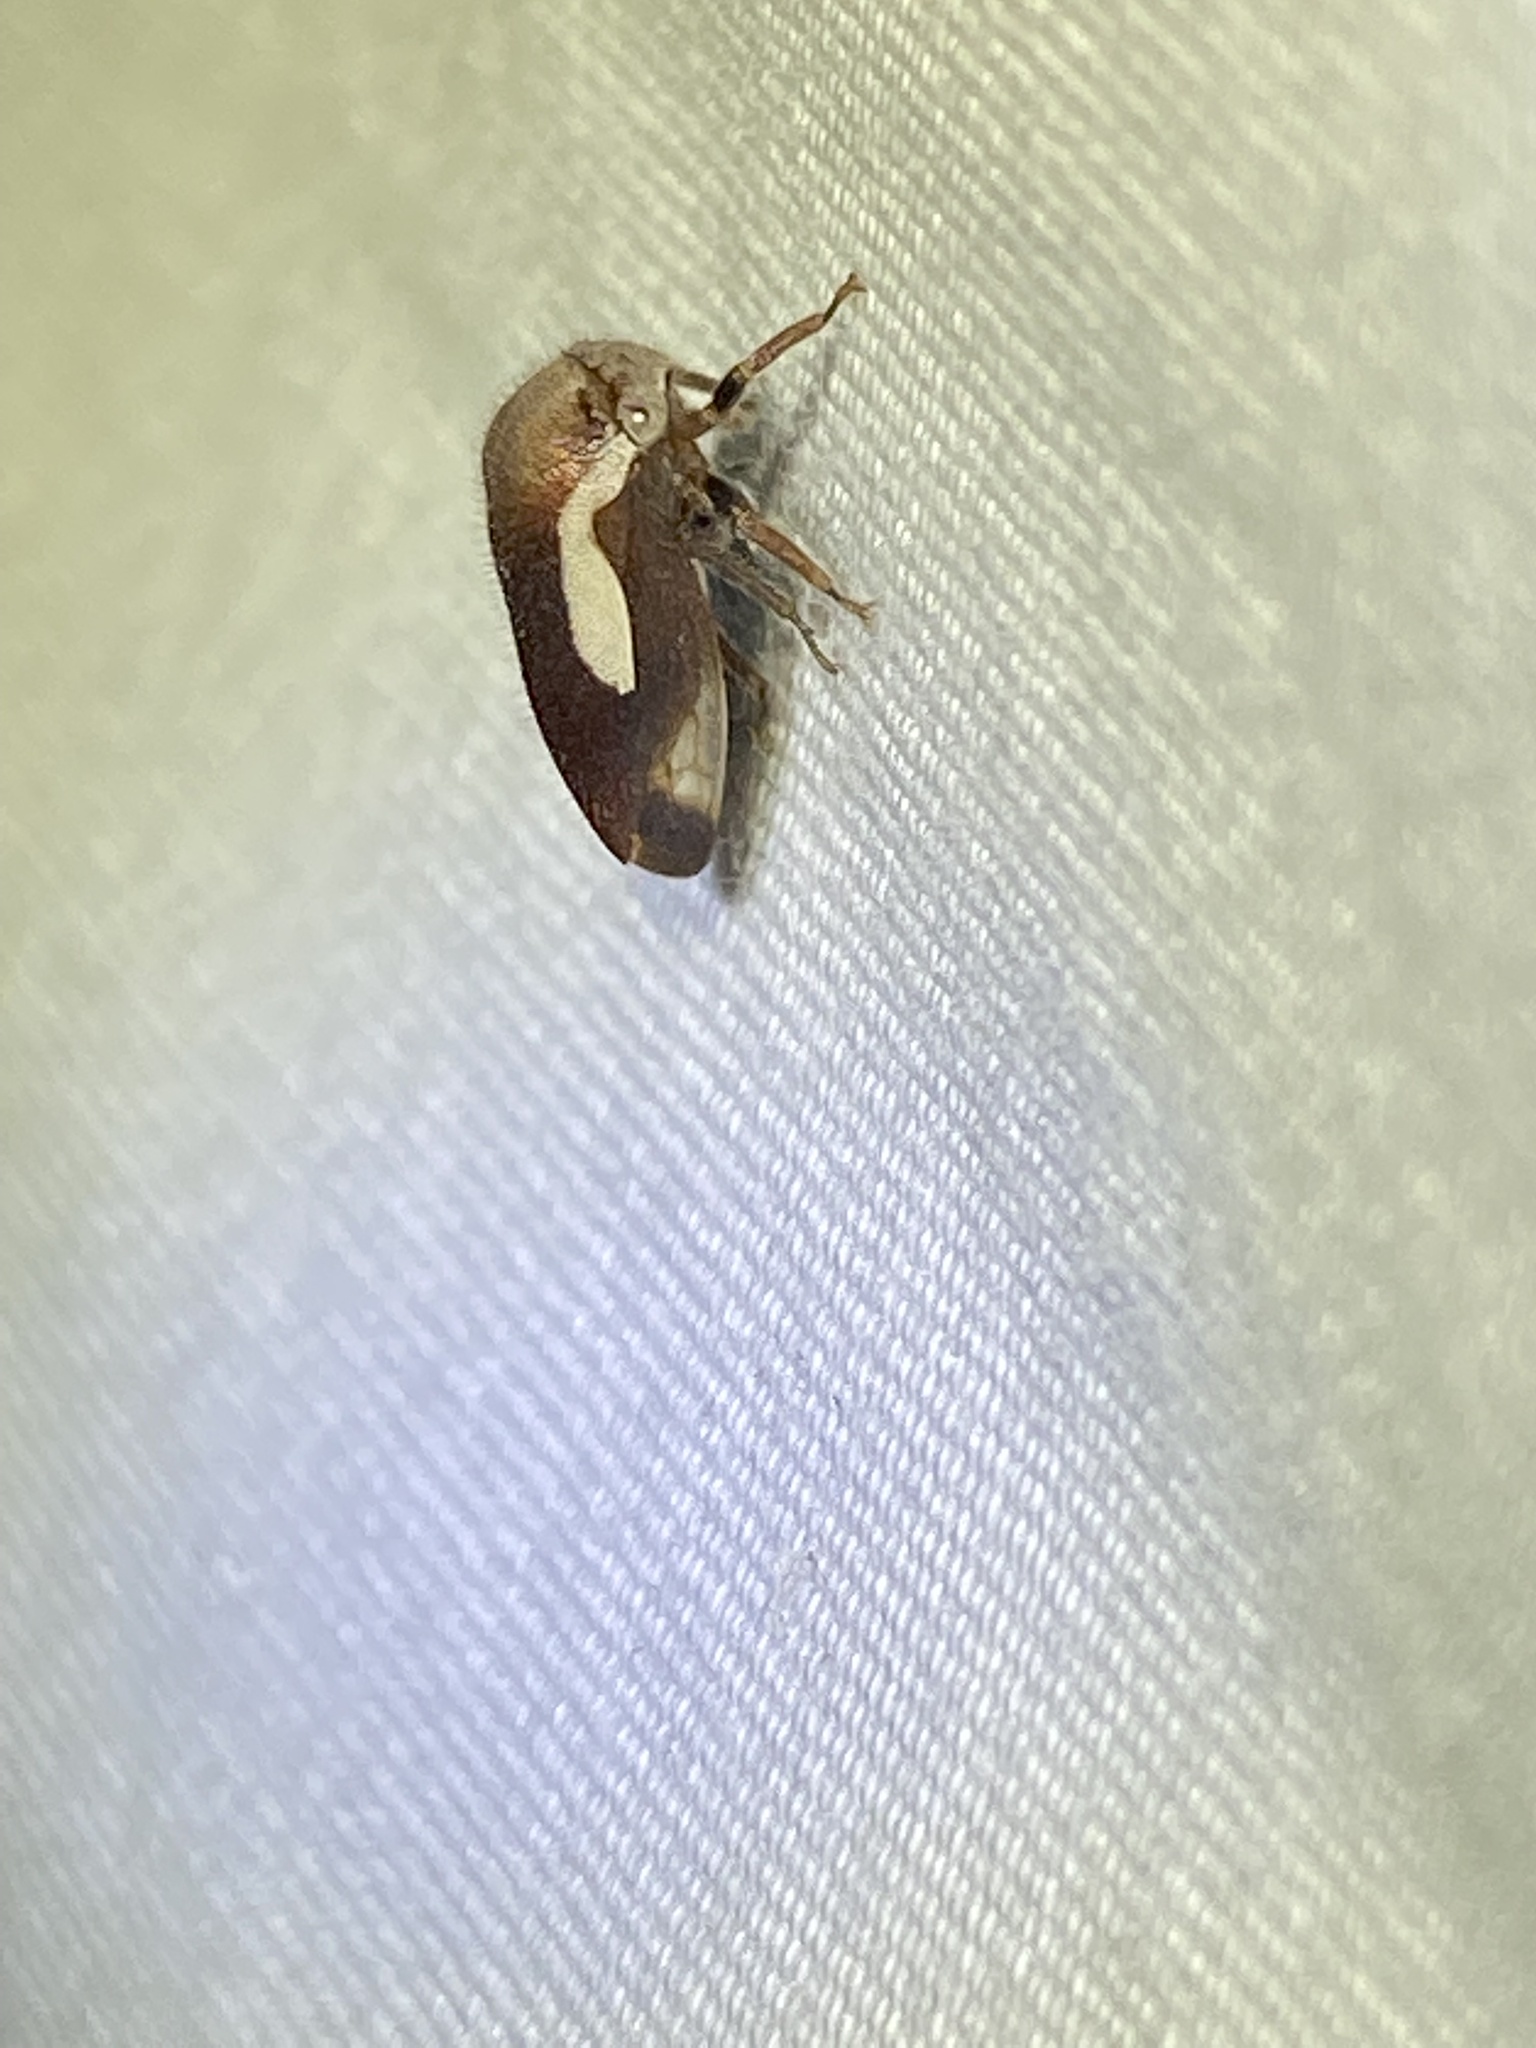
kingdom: Animalia
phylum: Arthropoda
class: Insecta
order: Hemiptera
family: Membracidae
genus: Ophiderma
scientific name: Ophiderma flavicephala
